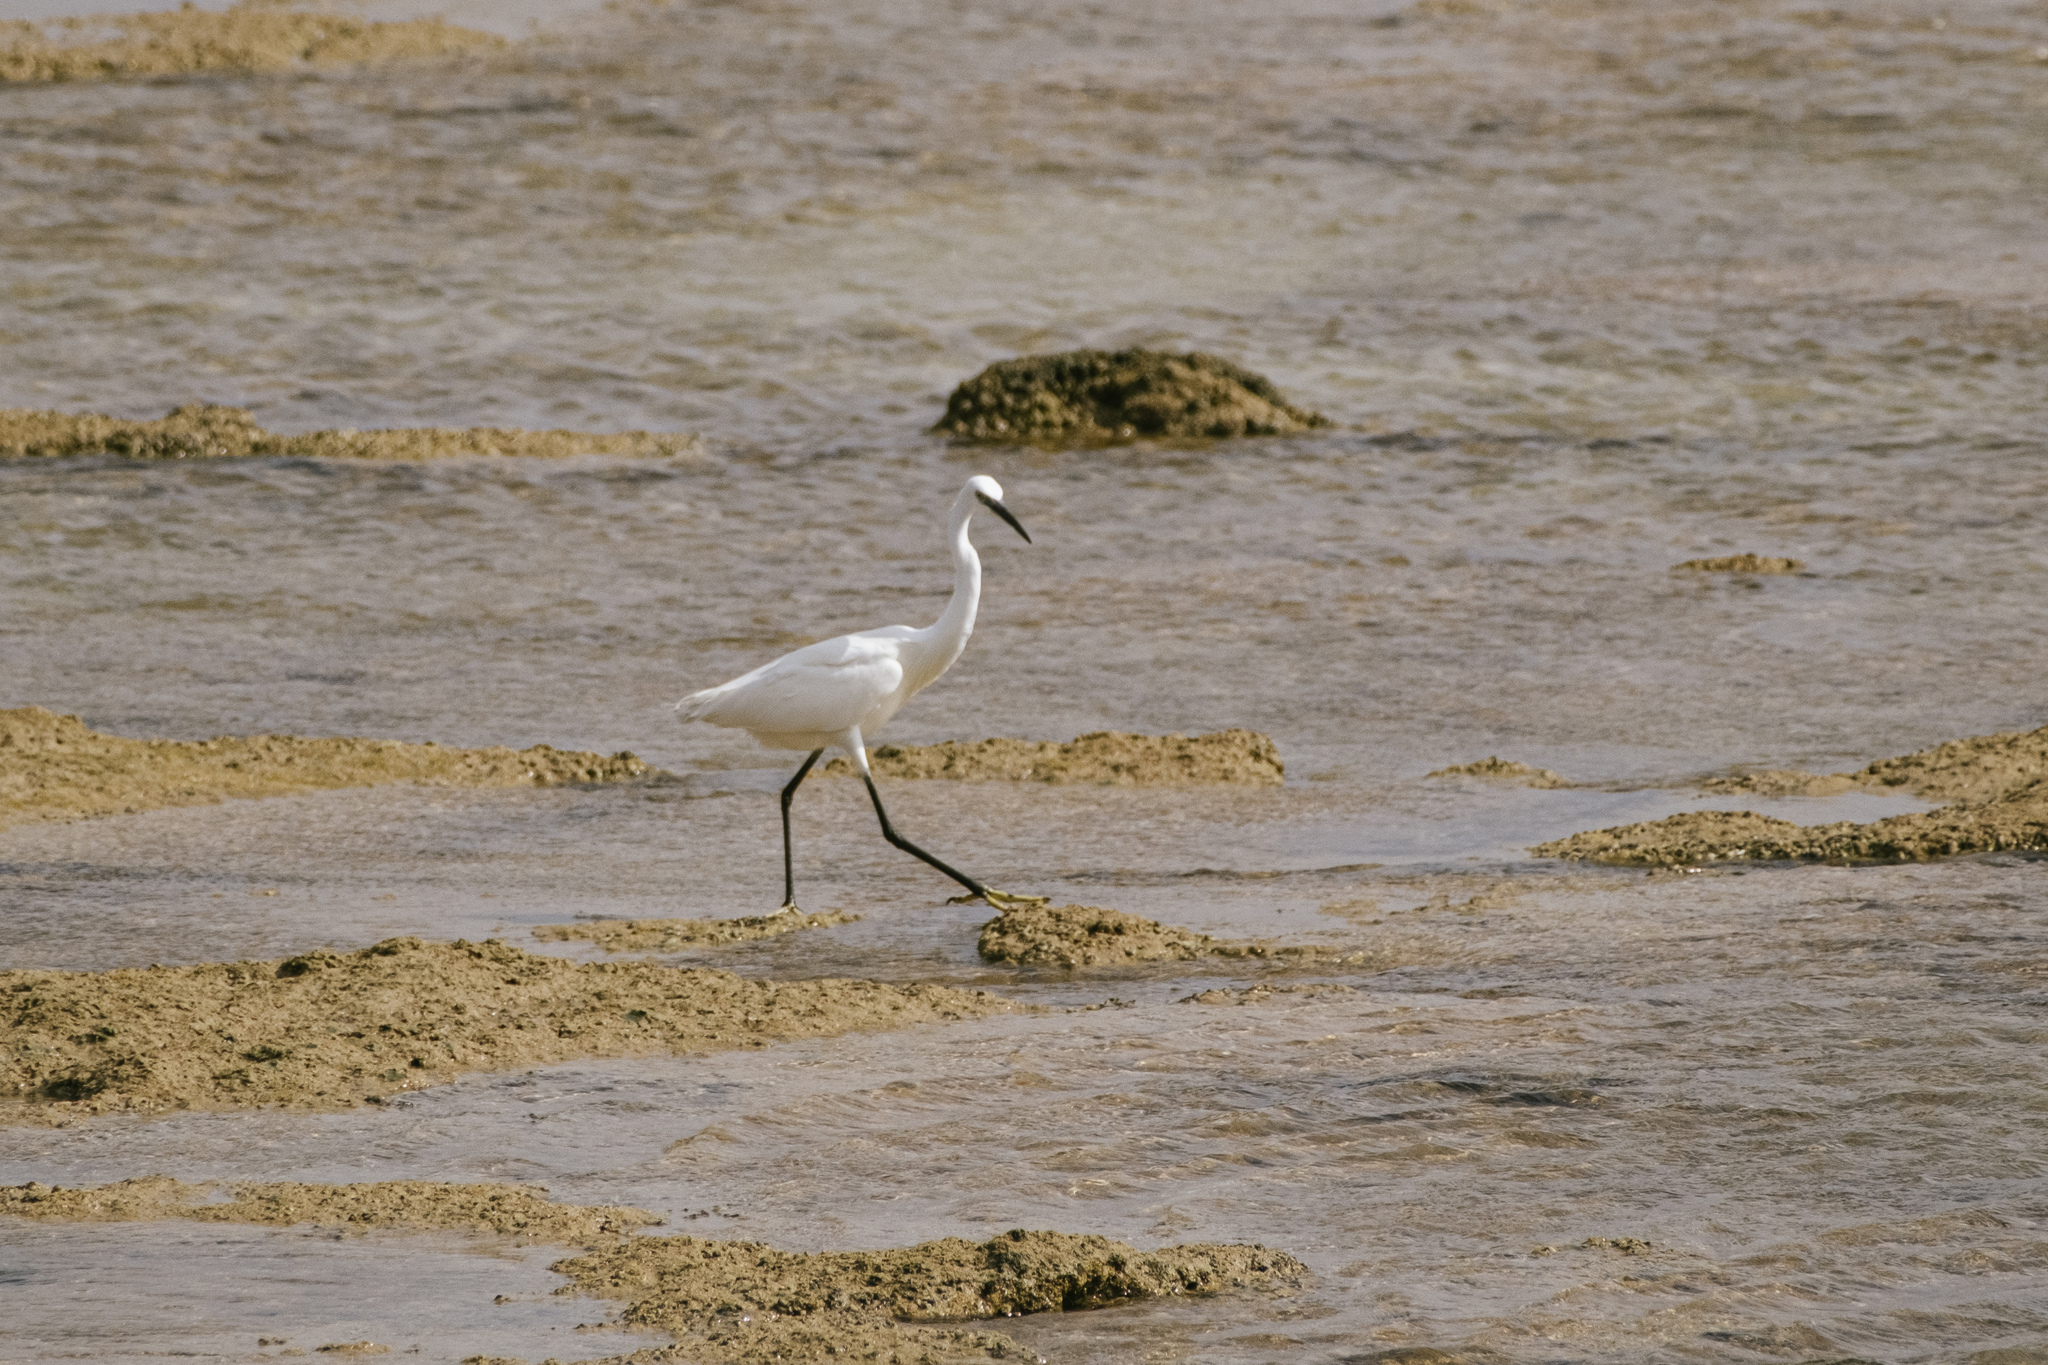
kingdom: Animalia
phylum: Chordata
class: Aves
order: Pelecaniformes
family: Ardeidae
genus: Egretta
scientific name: Egretta garzetta
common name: Little egret
